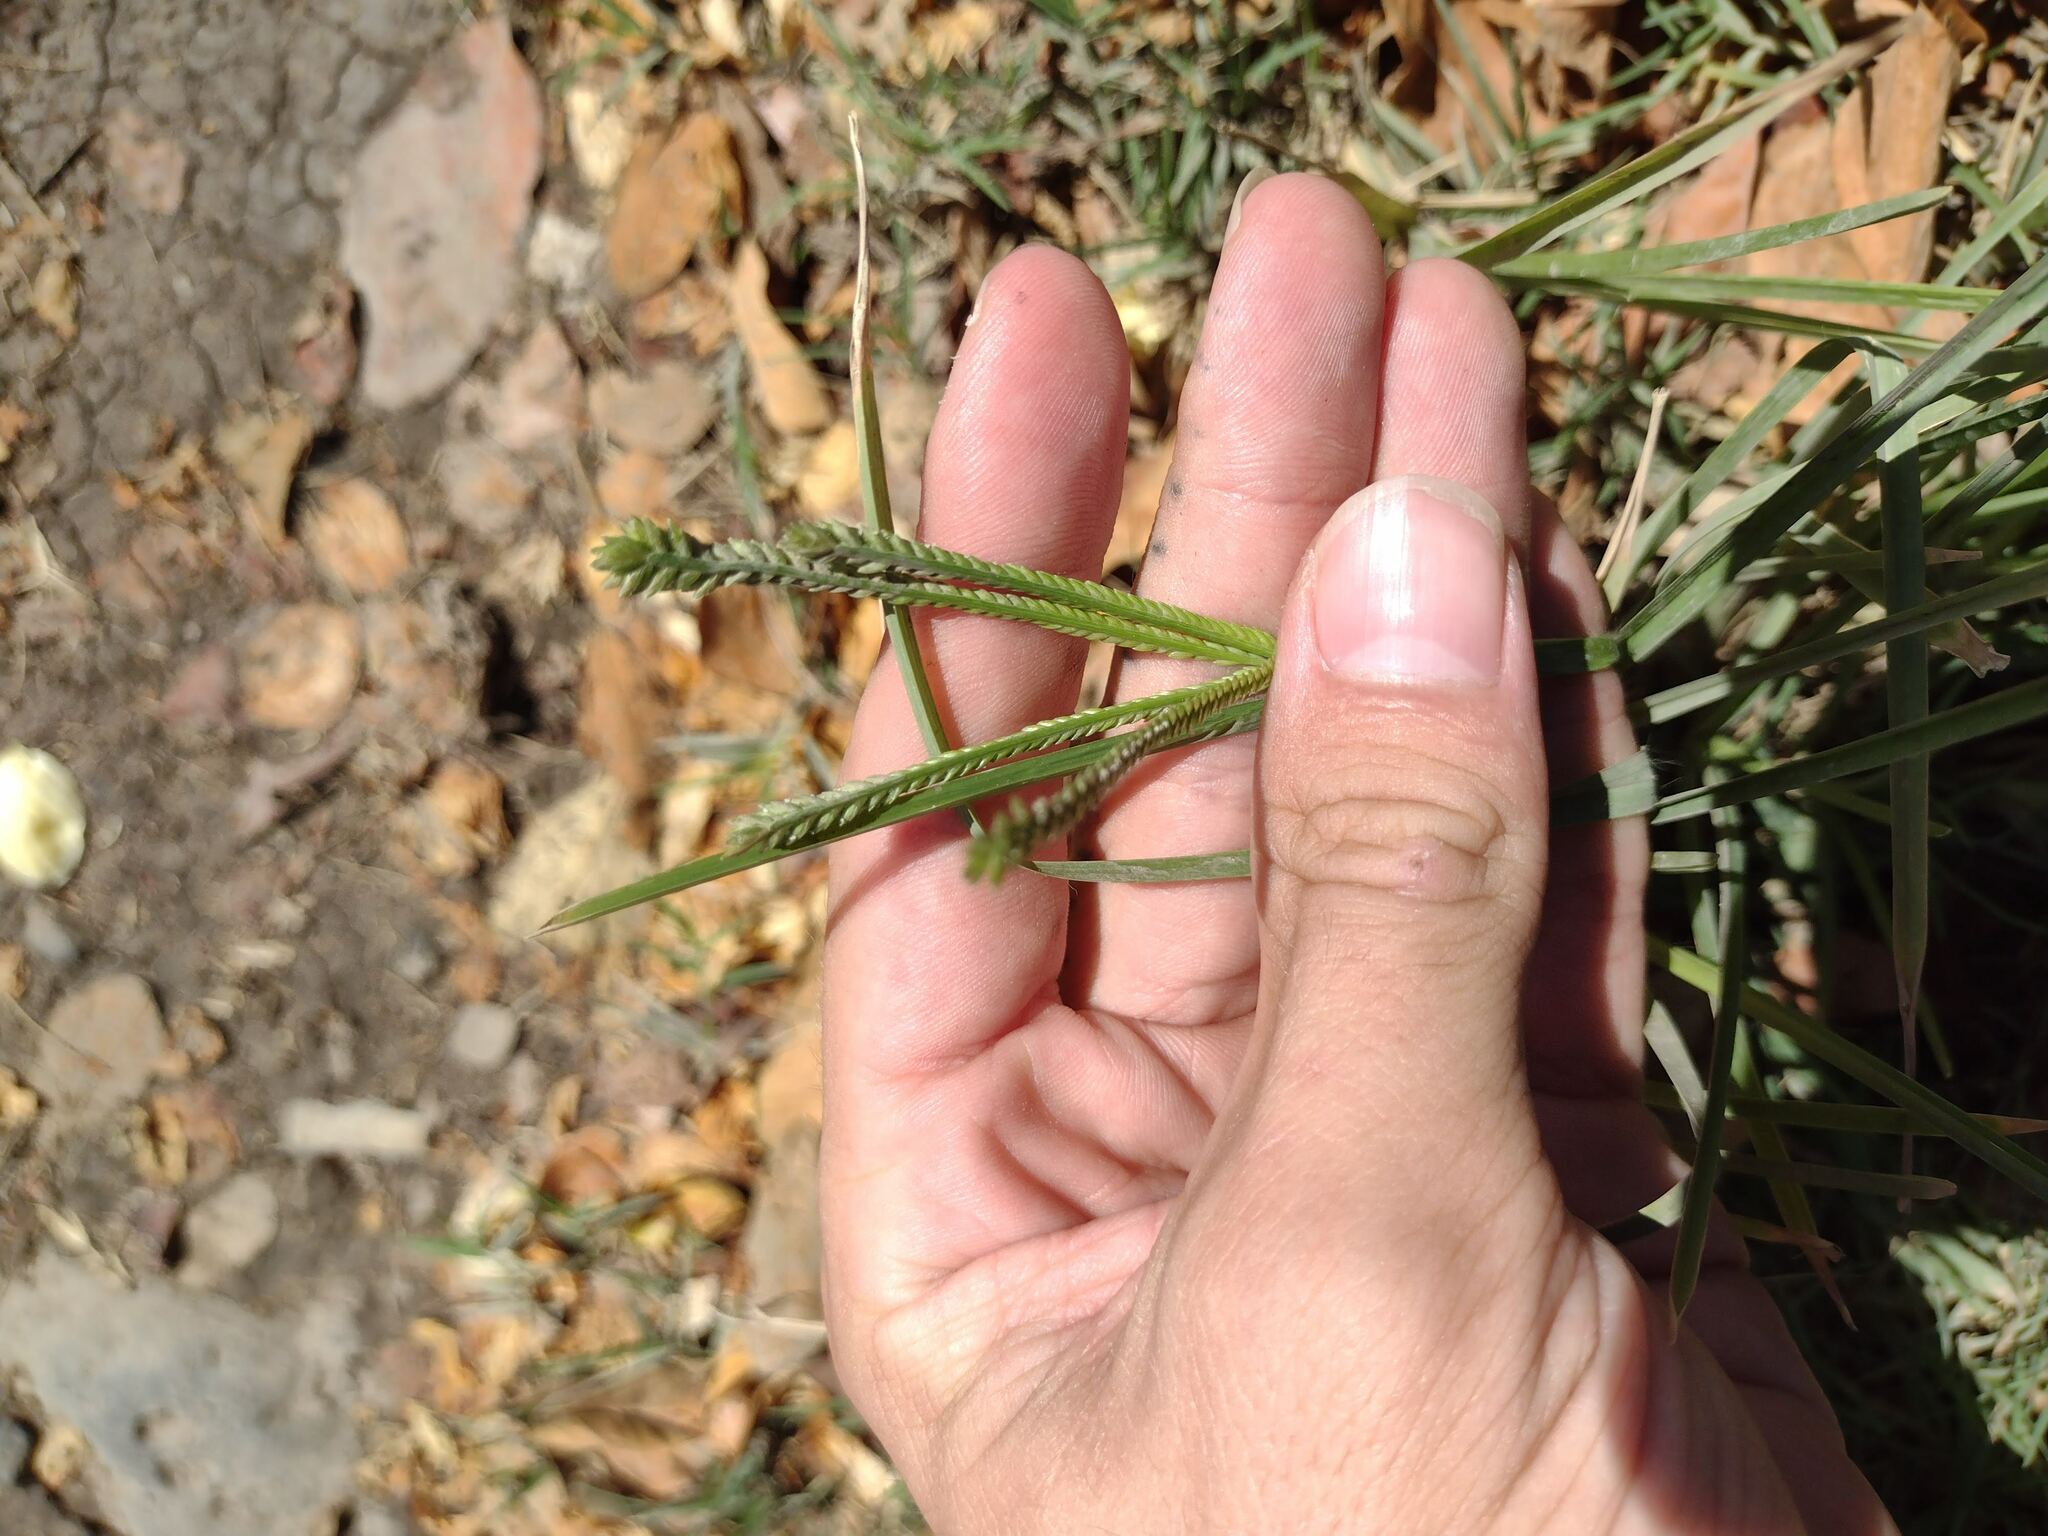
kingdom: Plantae
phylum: Tracheophyta
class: Liliopsida
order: Poales
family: Poaceae
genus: Eleusine
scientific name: Eleusine indica
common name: Yard-grass
